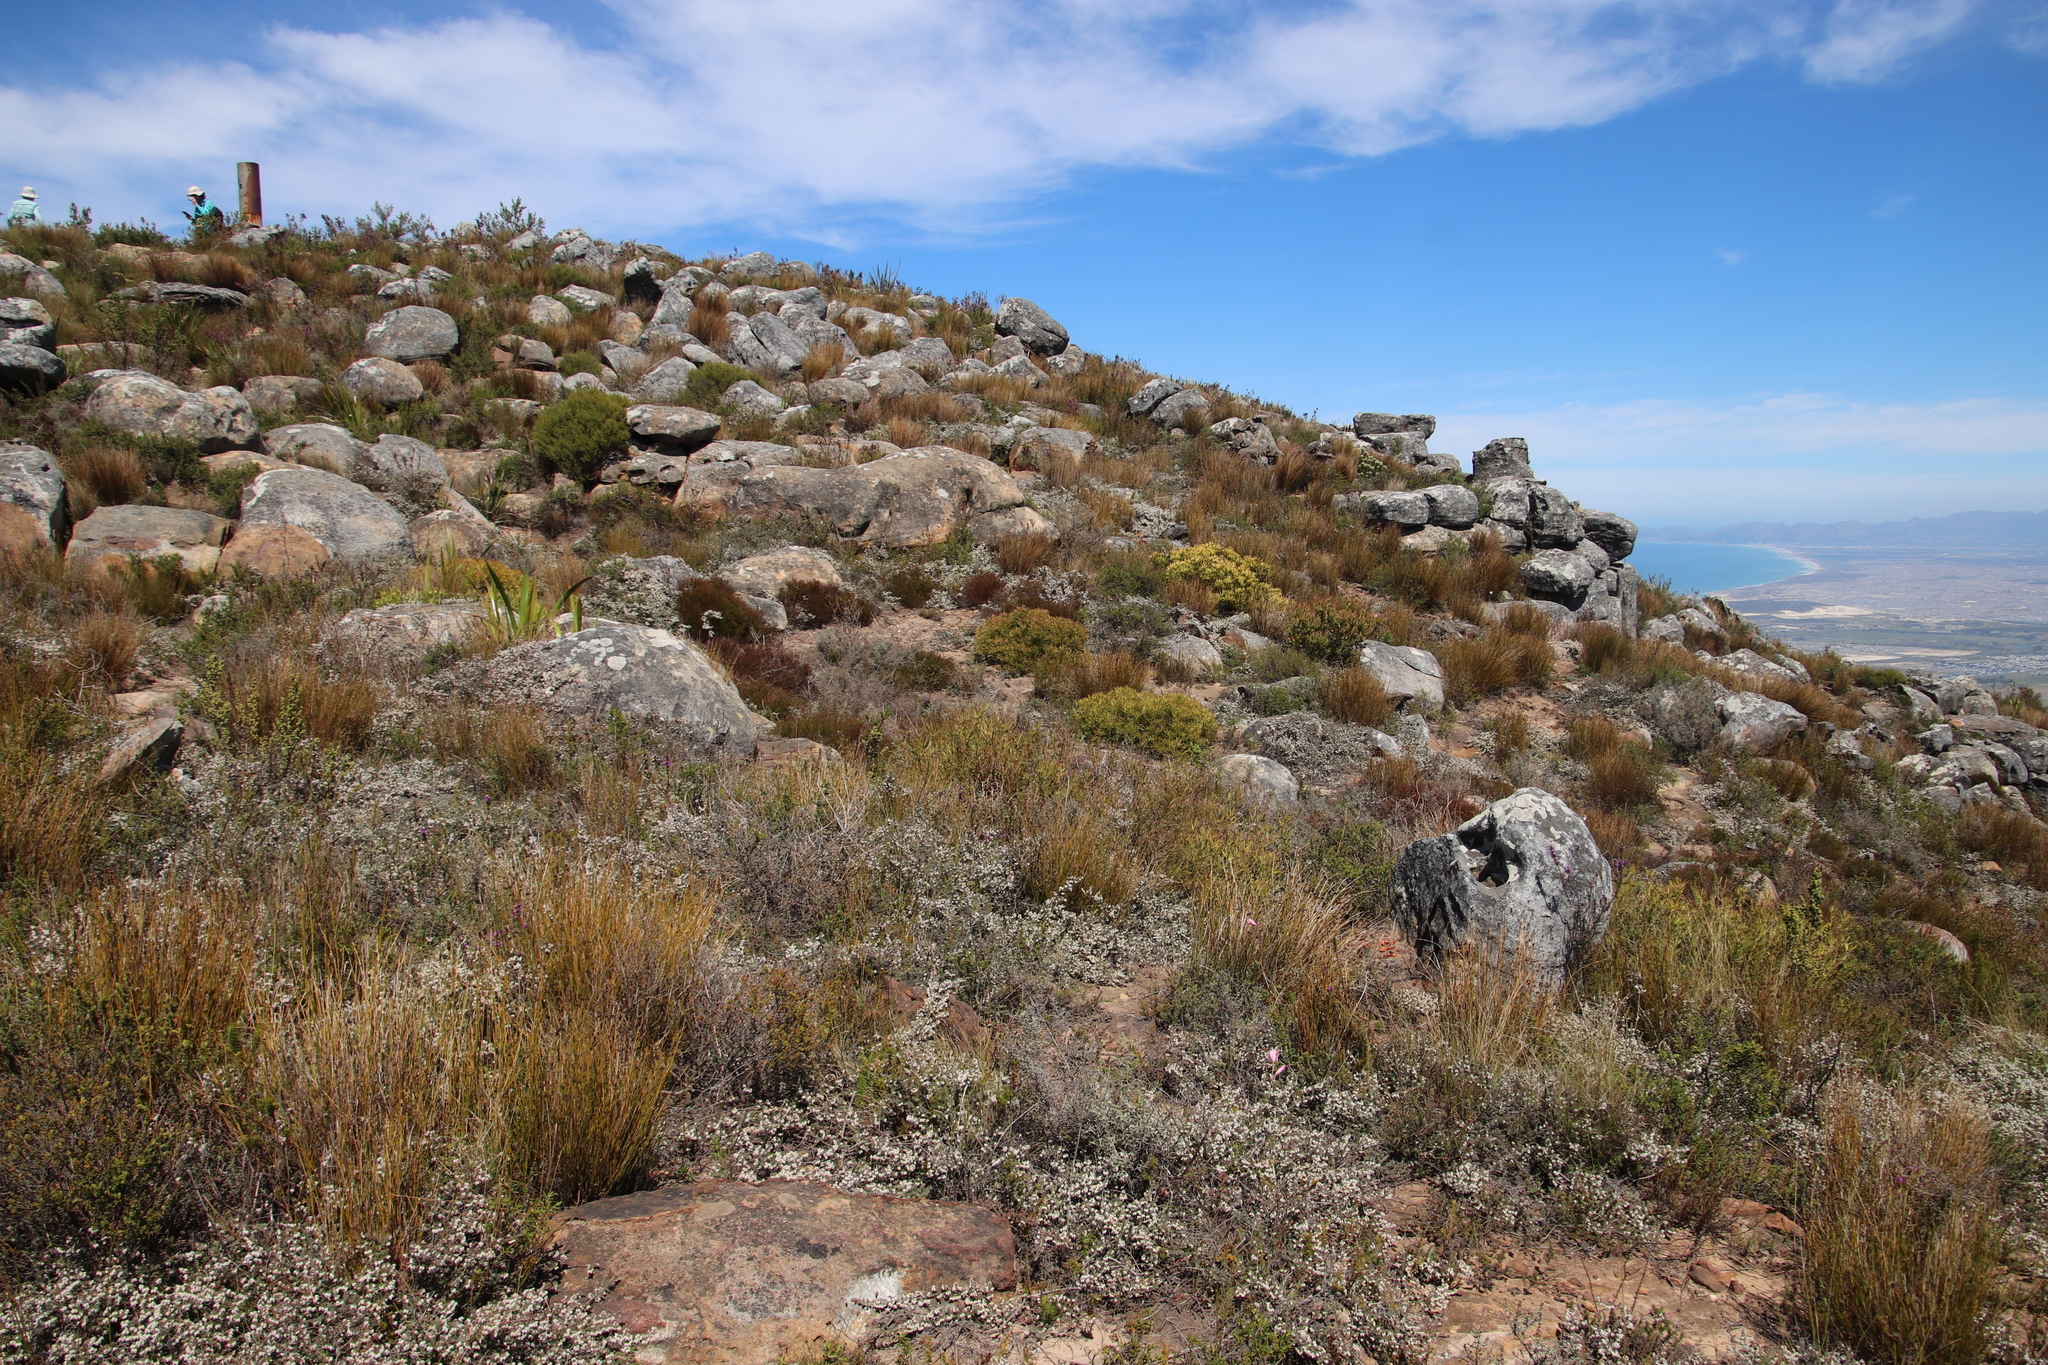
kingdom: Plantae
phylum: Tracheophyta
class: Magnoliopsida
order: Proteales
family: Proteaceae
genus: Leucadendron
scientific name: Leucadendron salignum
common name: Common sunshine conebush
